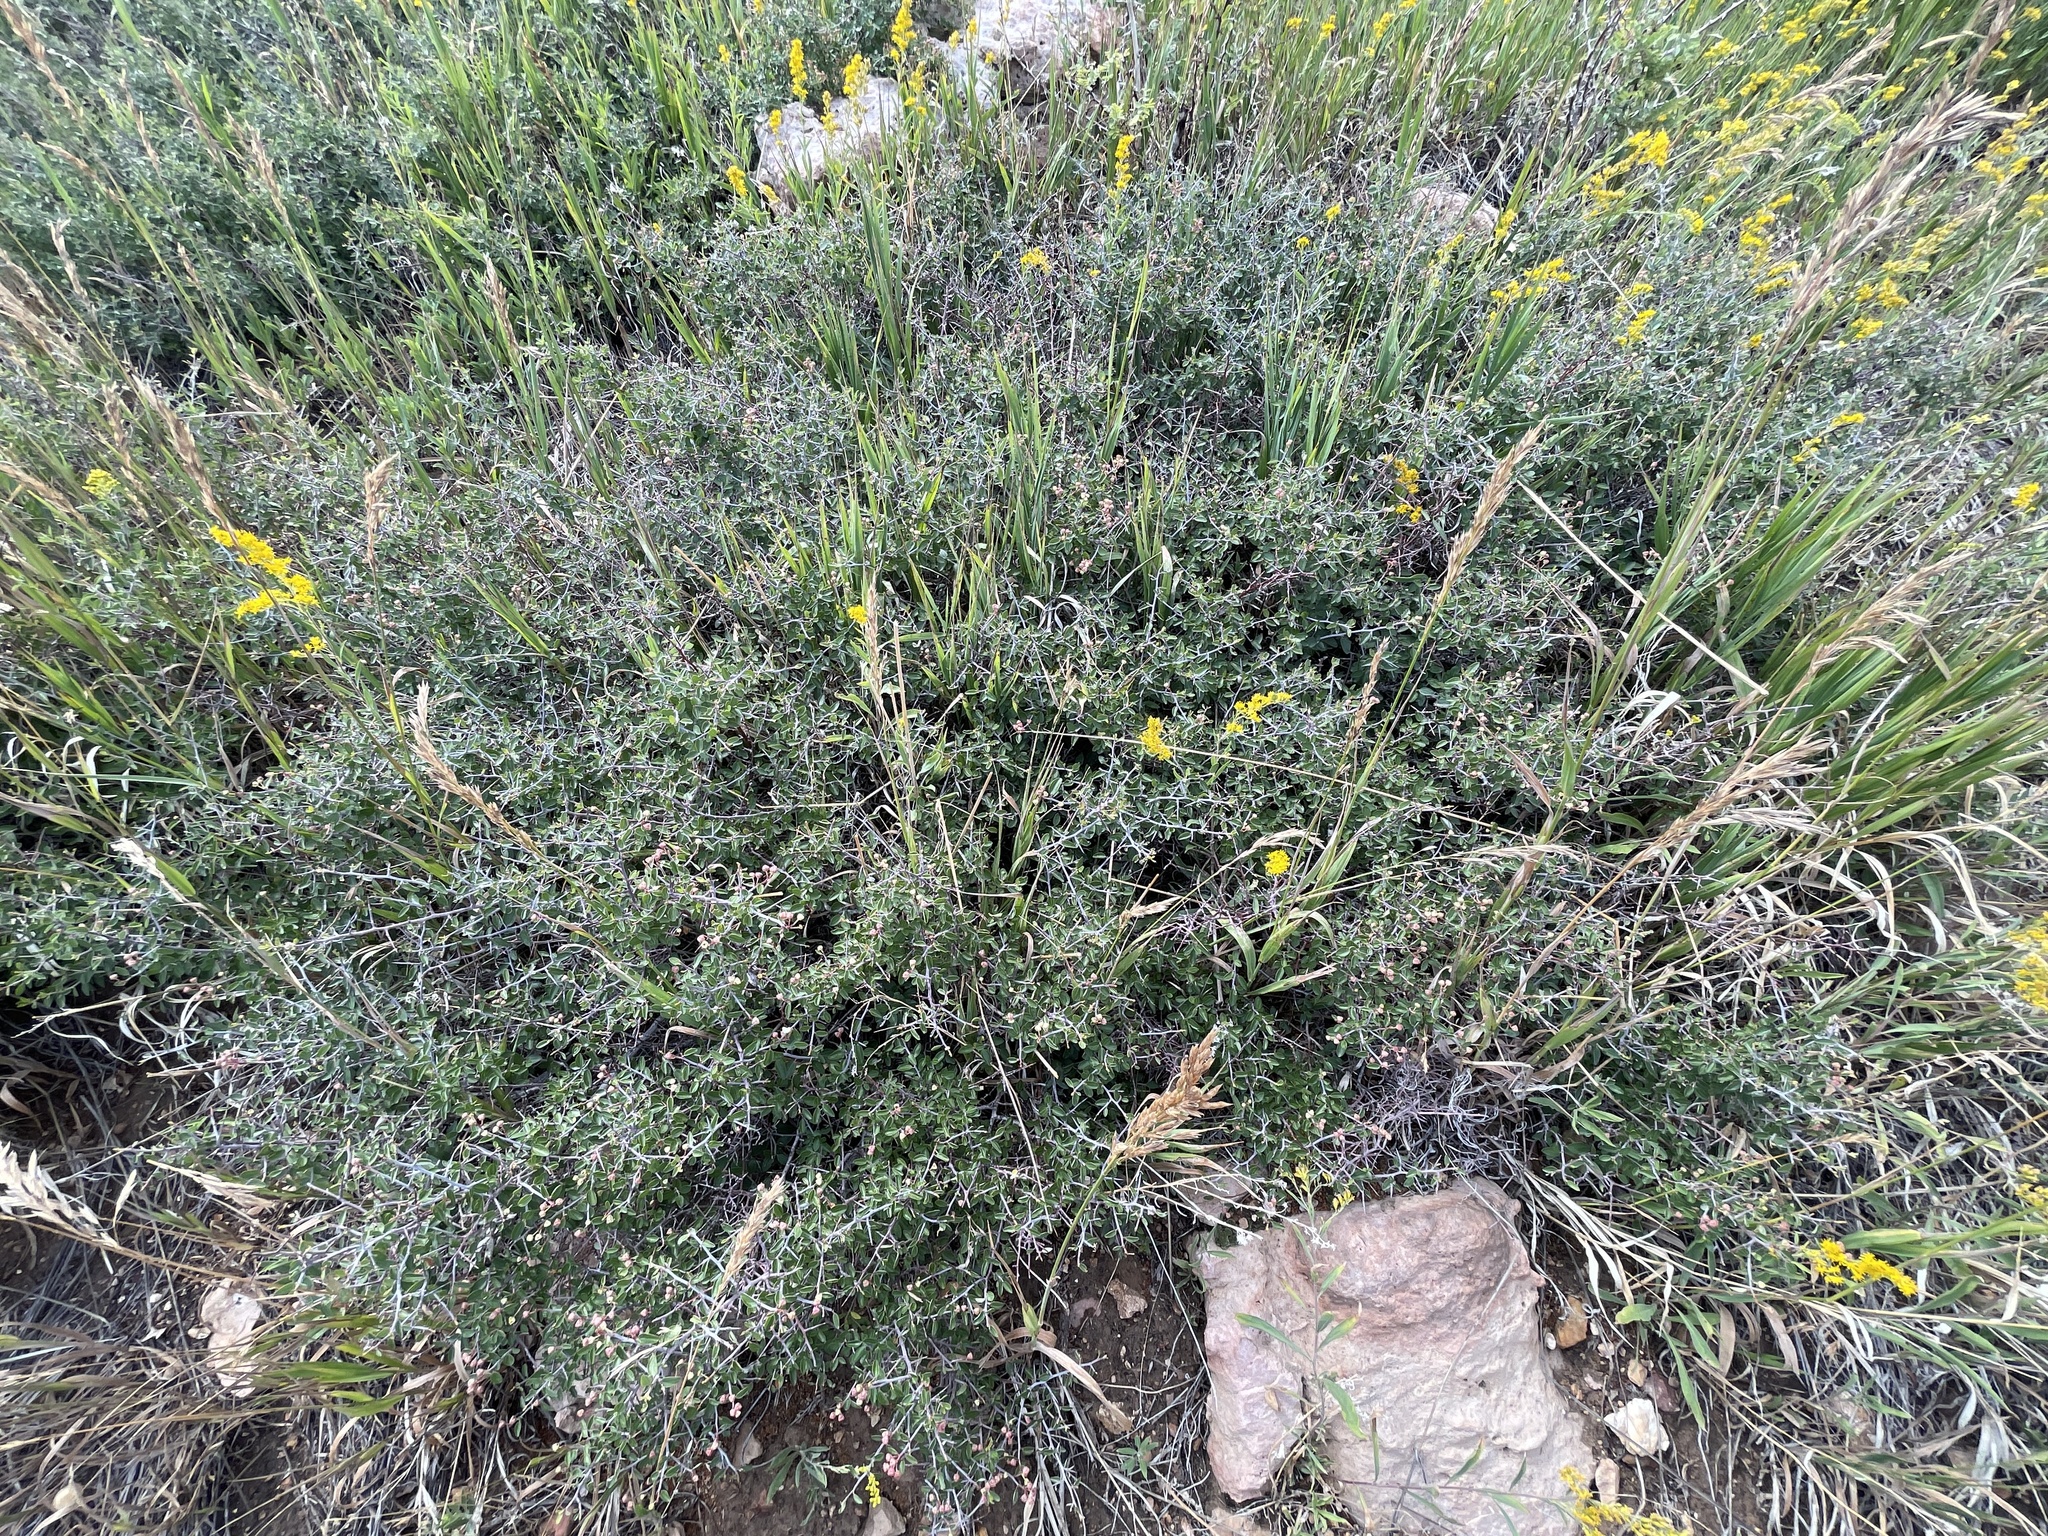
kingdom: Plantae
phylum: Tracheophyta
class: Magnoliopsida
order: Rosales
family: Rhamnaceae
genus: Ceanothus
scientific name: Ceanothus fendleri
